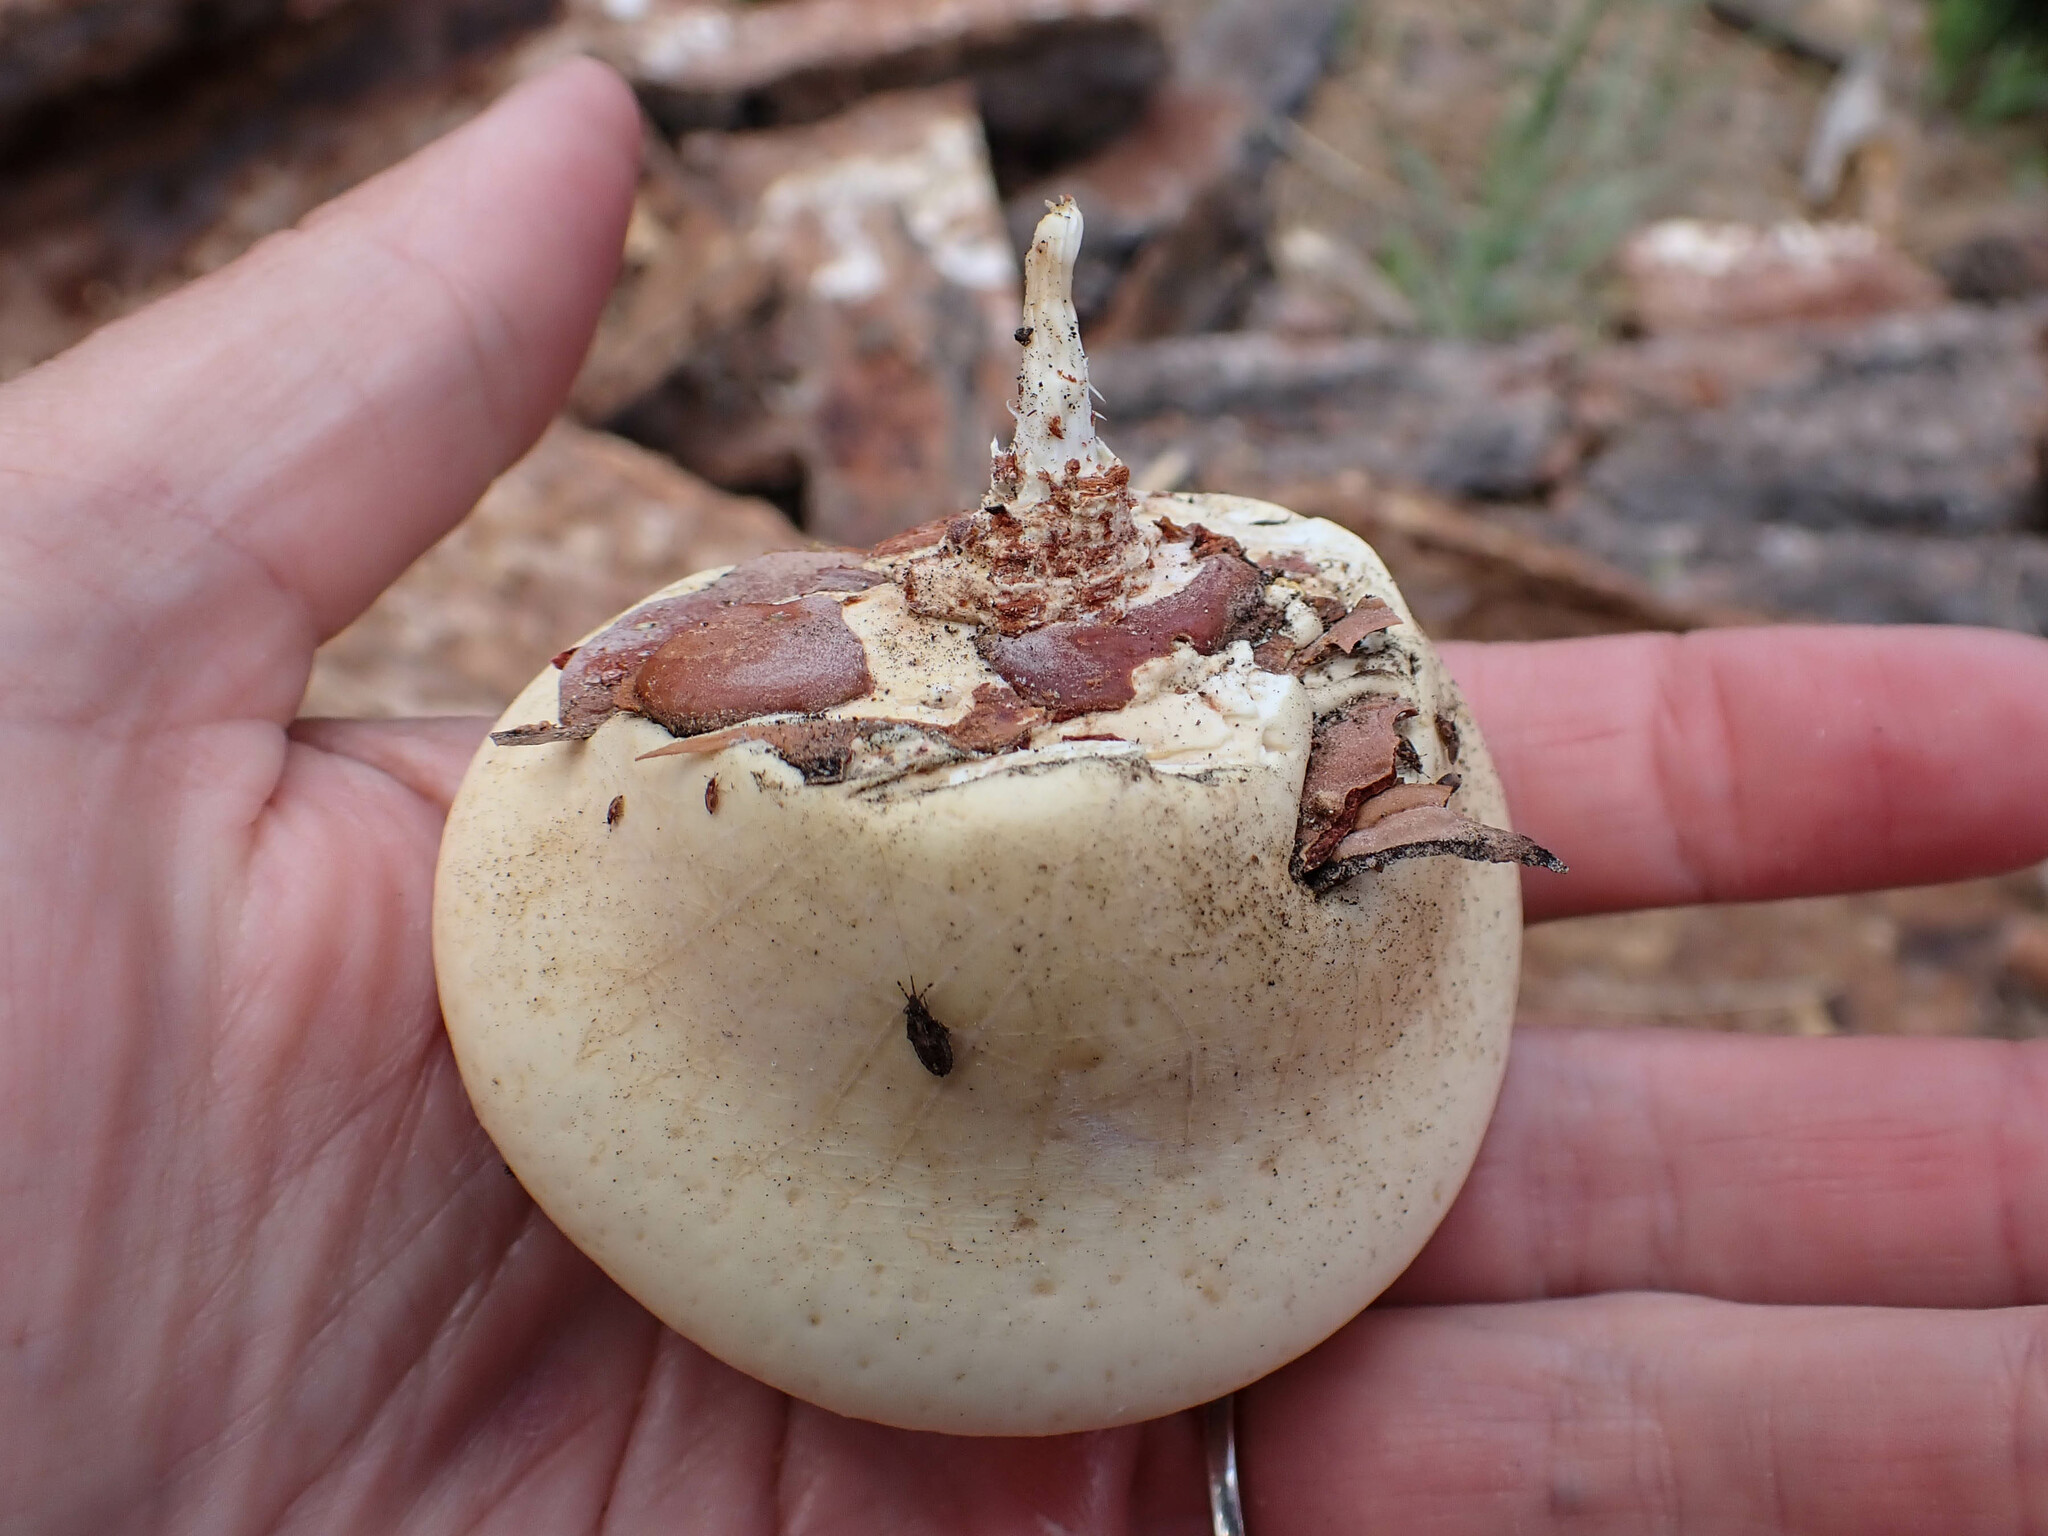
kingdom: Fungi
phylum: Basidiomycota
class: Agaricomycetes
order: Polyporales
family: Polyporaceae
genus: Cryptoporus
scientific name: Cryptoporus volvatus
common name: Veiled polypore
